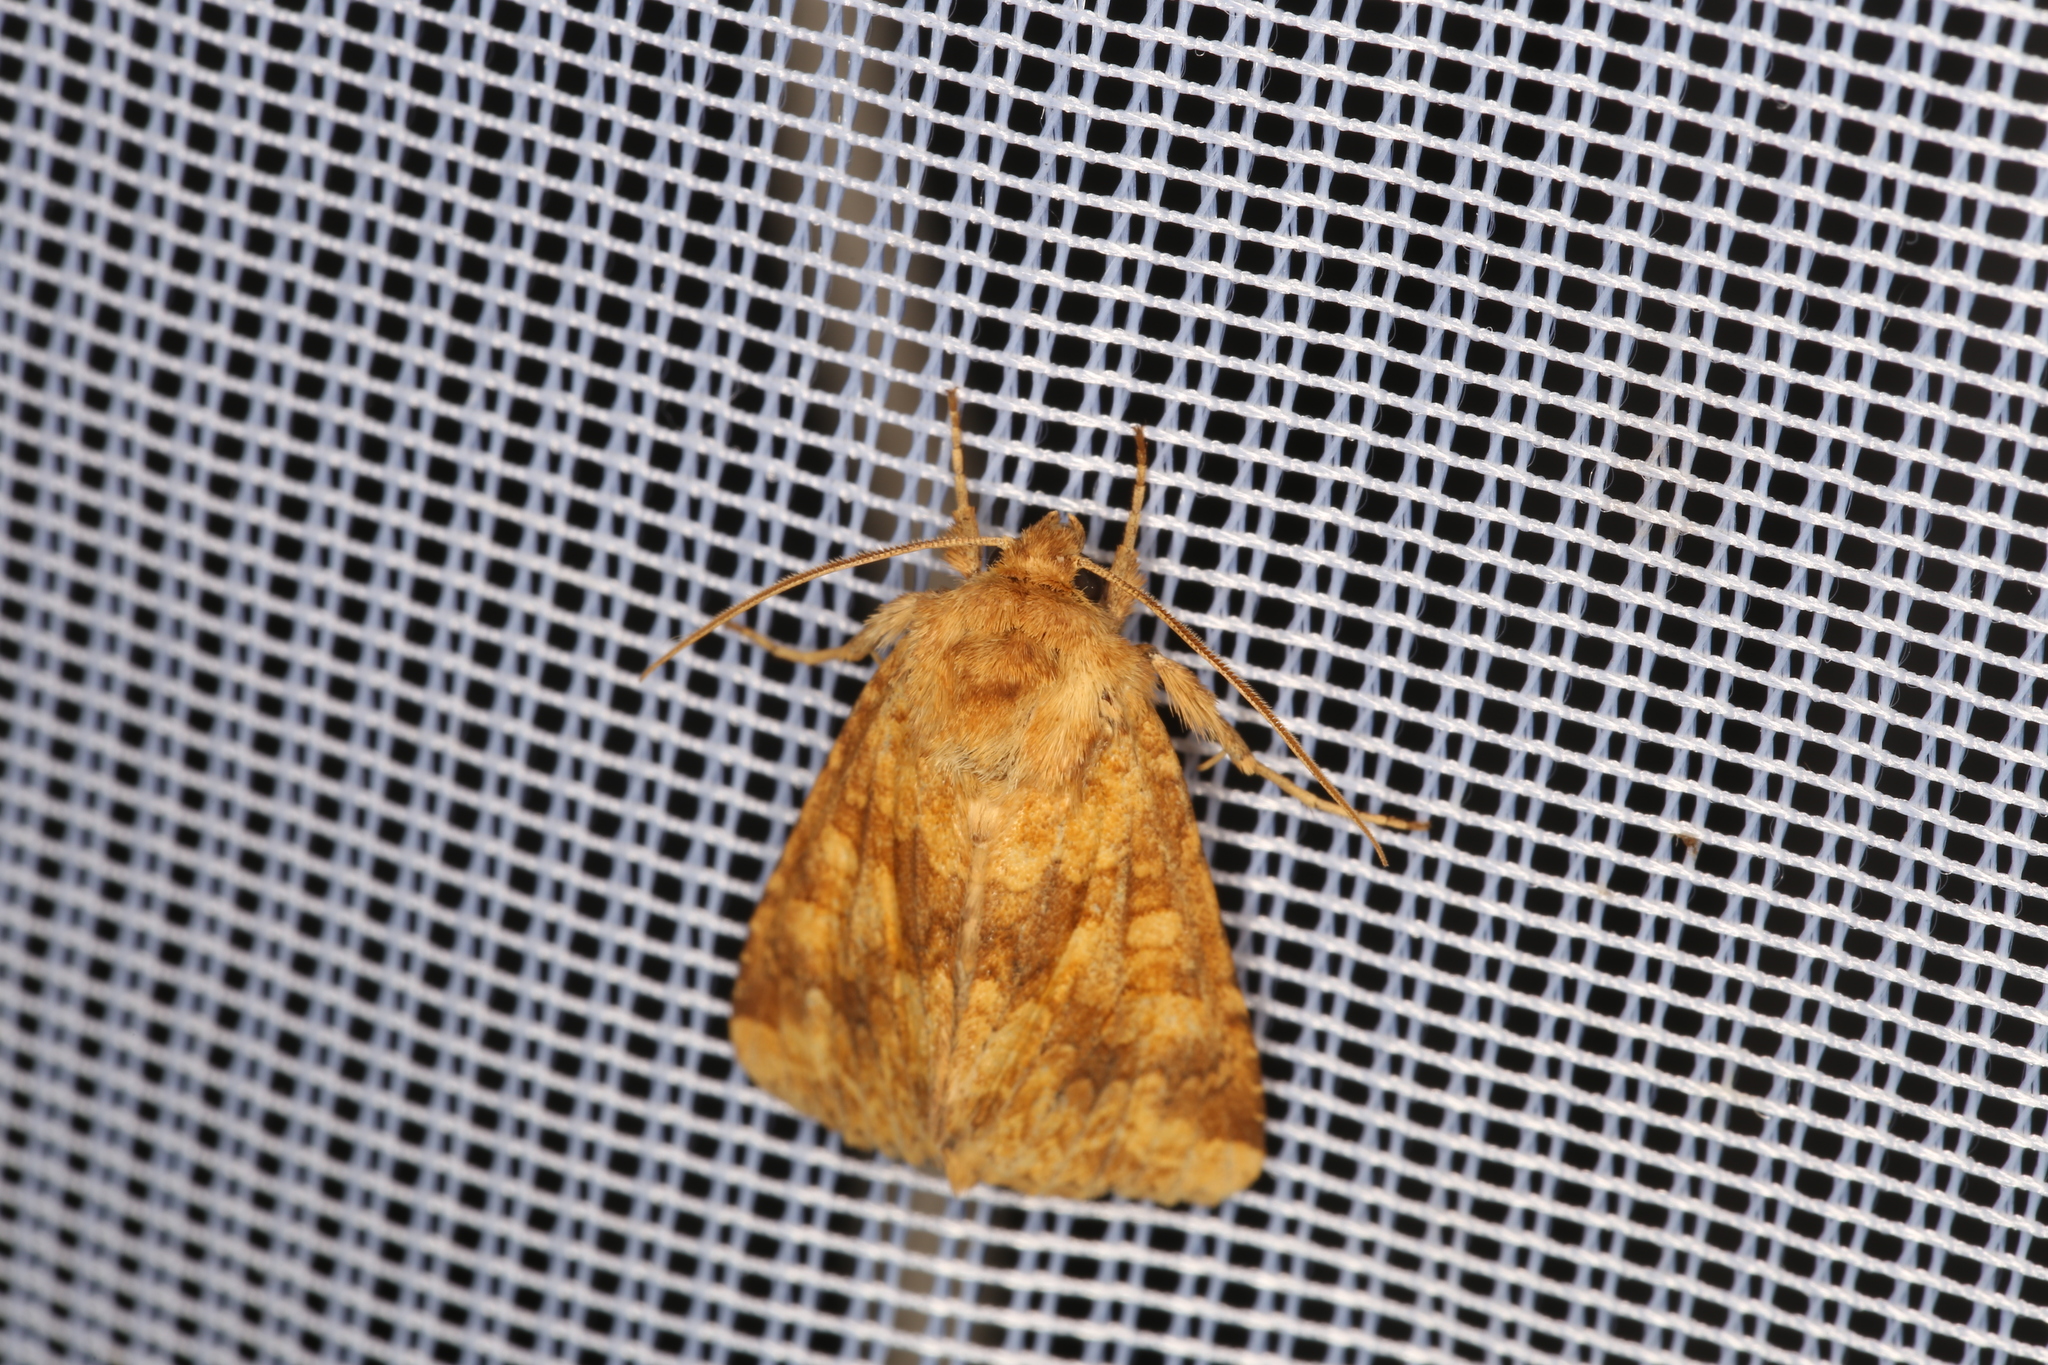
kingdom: Animalia
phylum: Arthropoda
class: Insecta
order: Lepidoptera
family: Noctuidae
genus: Conisania
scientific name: Conisania luteago
